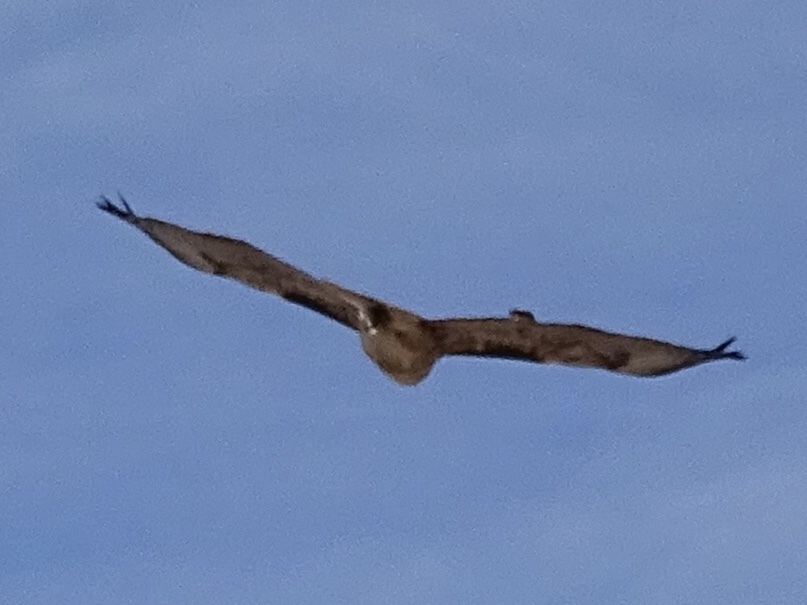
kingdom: Animalia
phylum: Chordata
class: Aves
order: Accipitriformes
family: Accipitridae
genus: Buteo
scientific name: Buteo jamaicensis
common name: Red-tailed hawk
